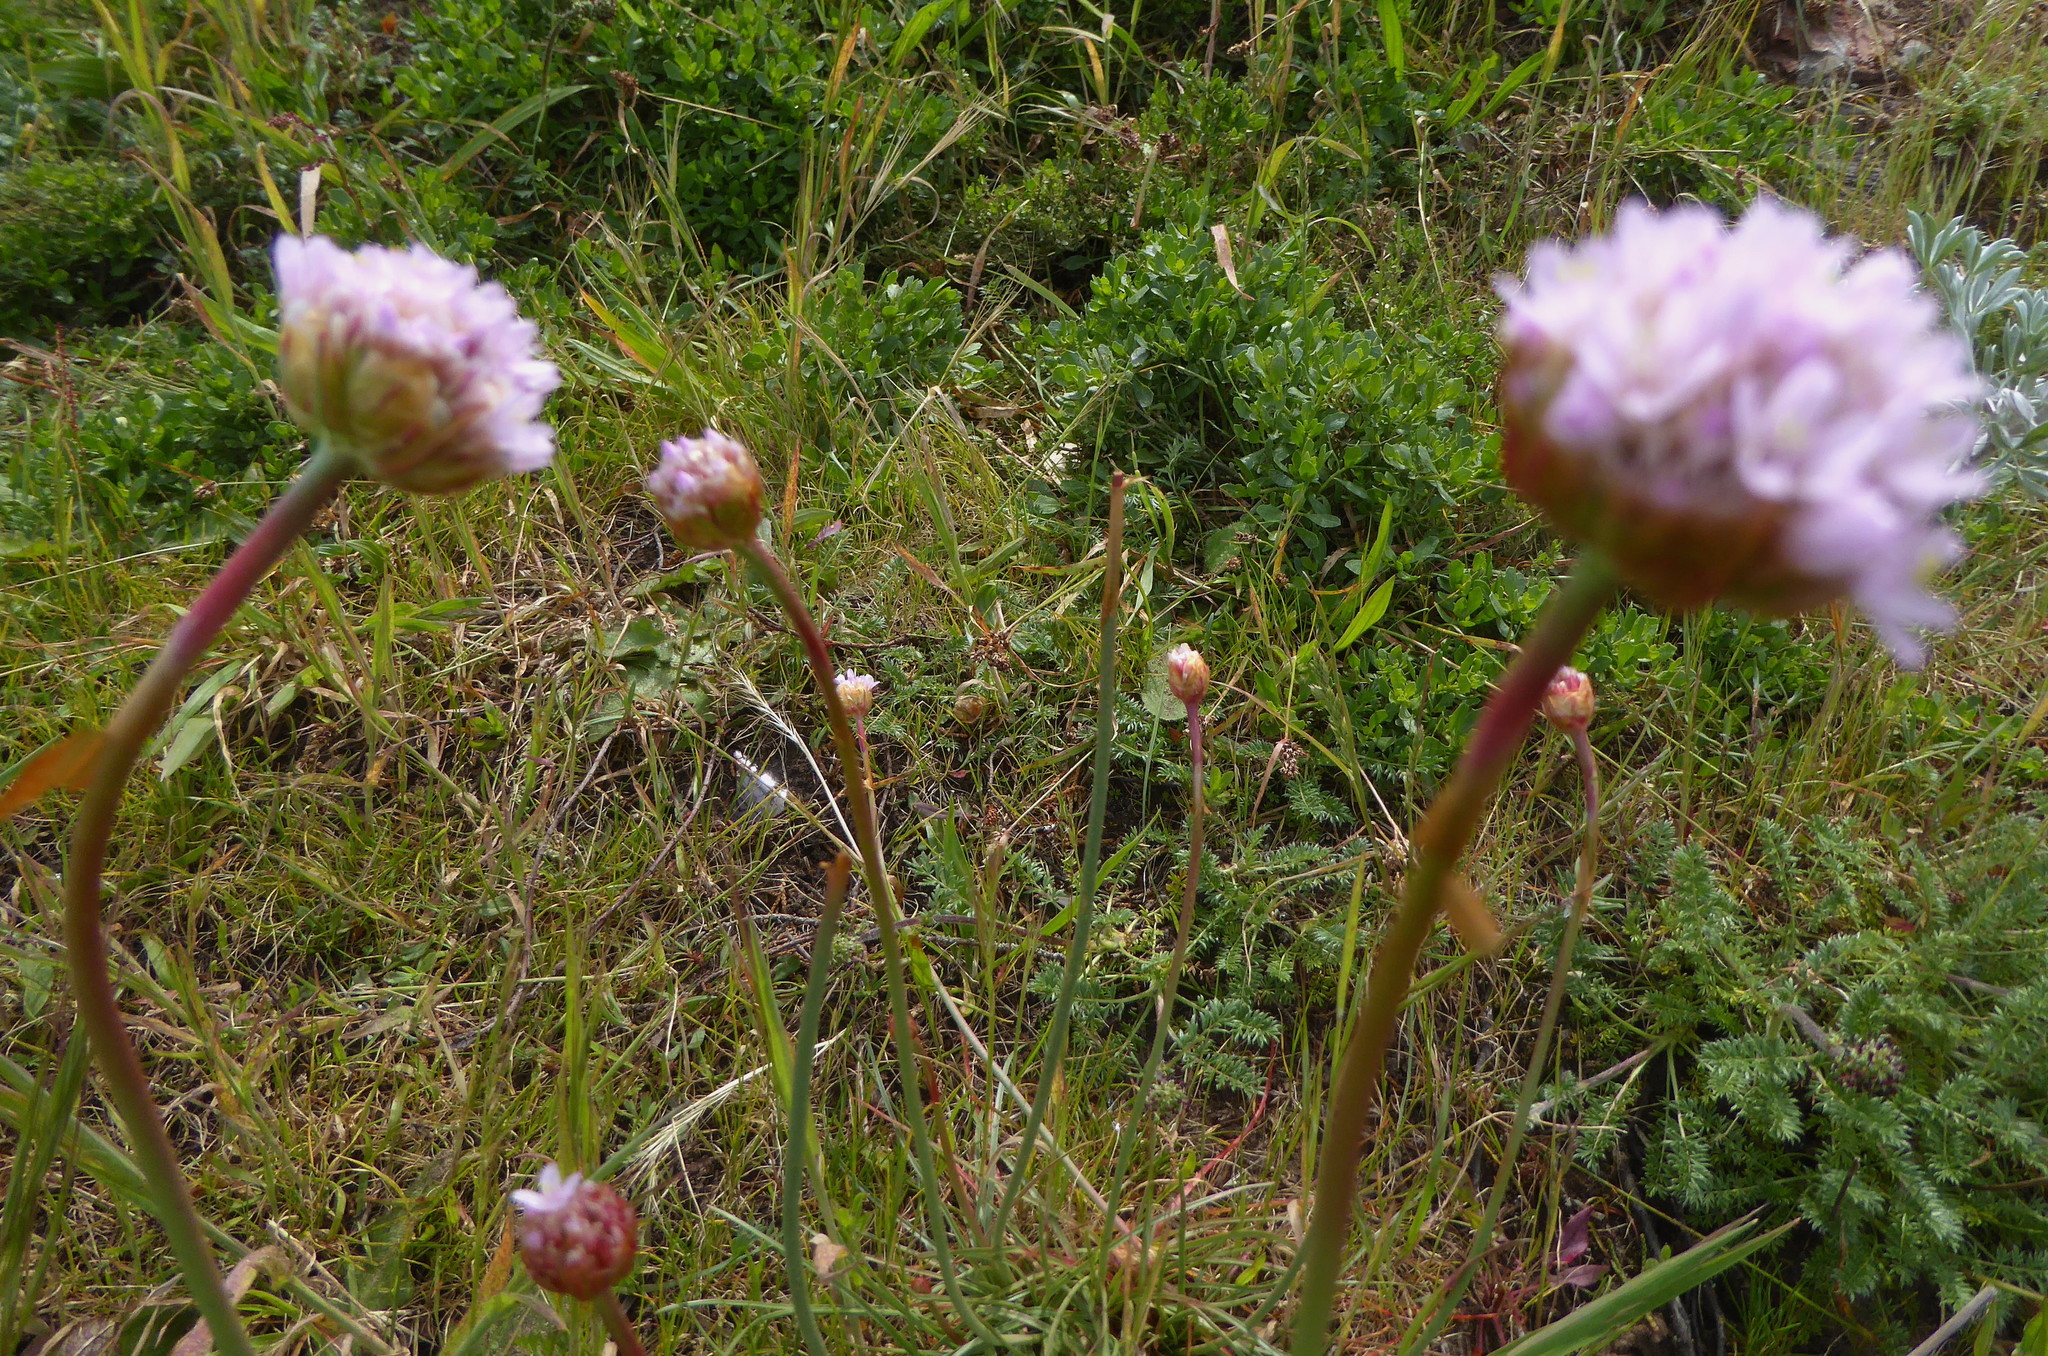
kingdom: Plantae
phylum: Tracheophyta
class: Magnoliopsida
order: Caryophyllales
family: Plumbaginaceae
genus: Armeria
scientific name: Armeria maritima
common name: Thrift
